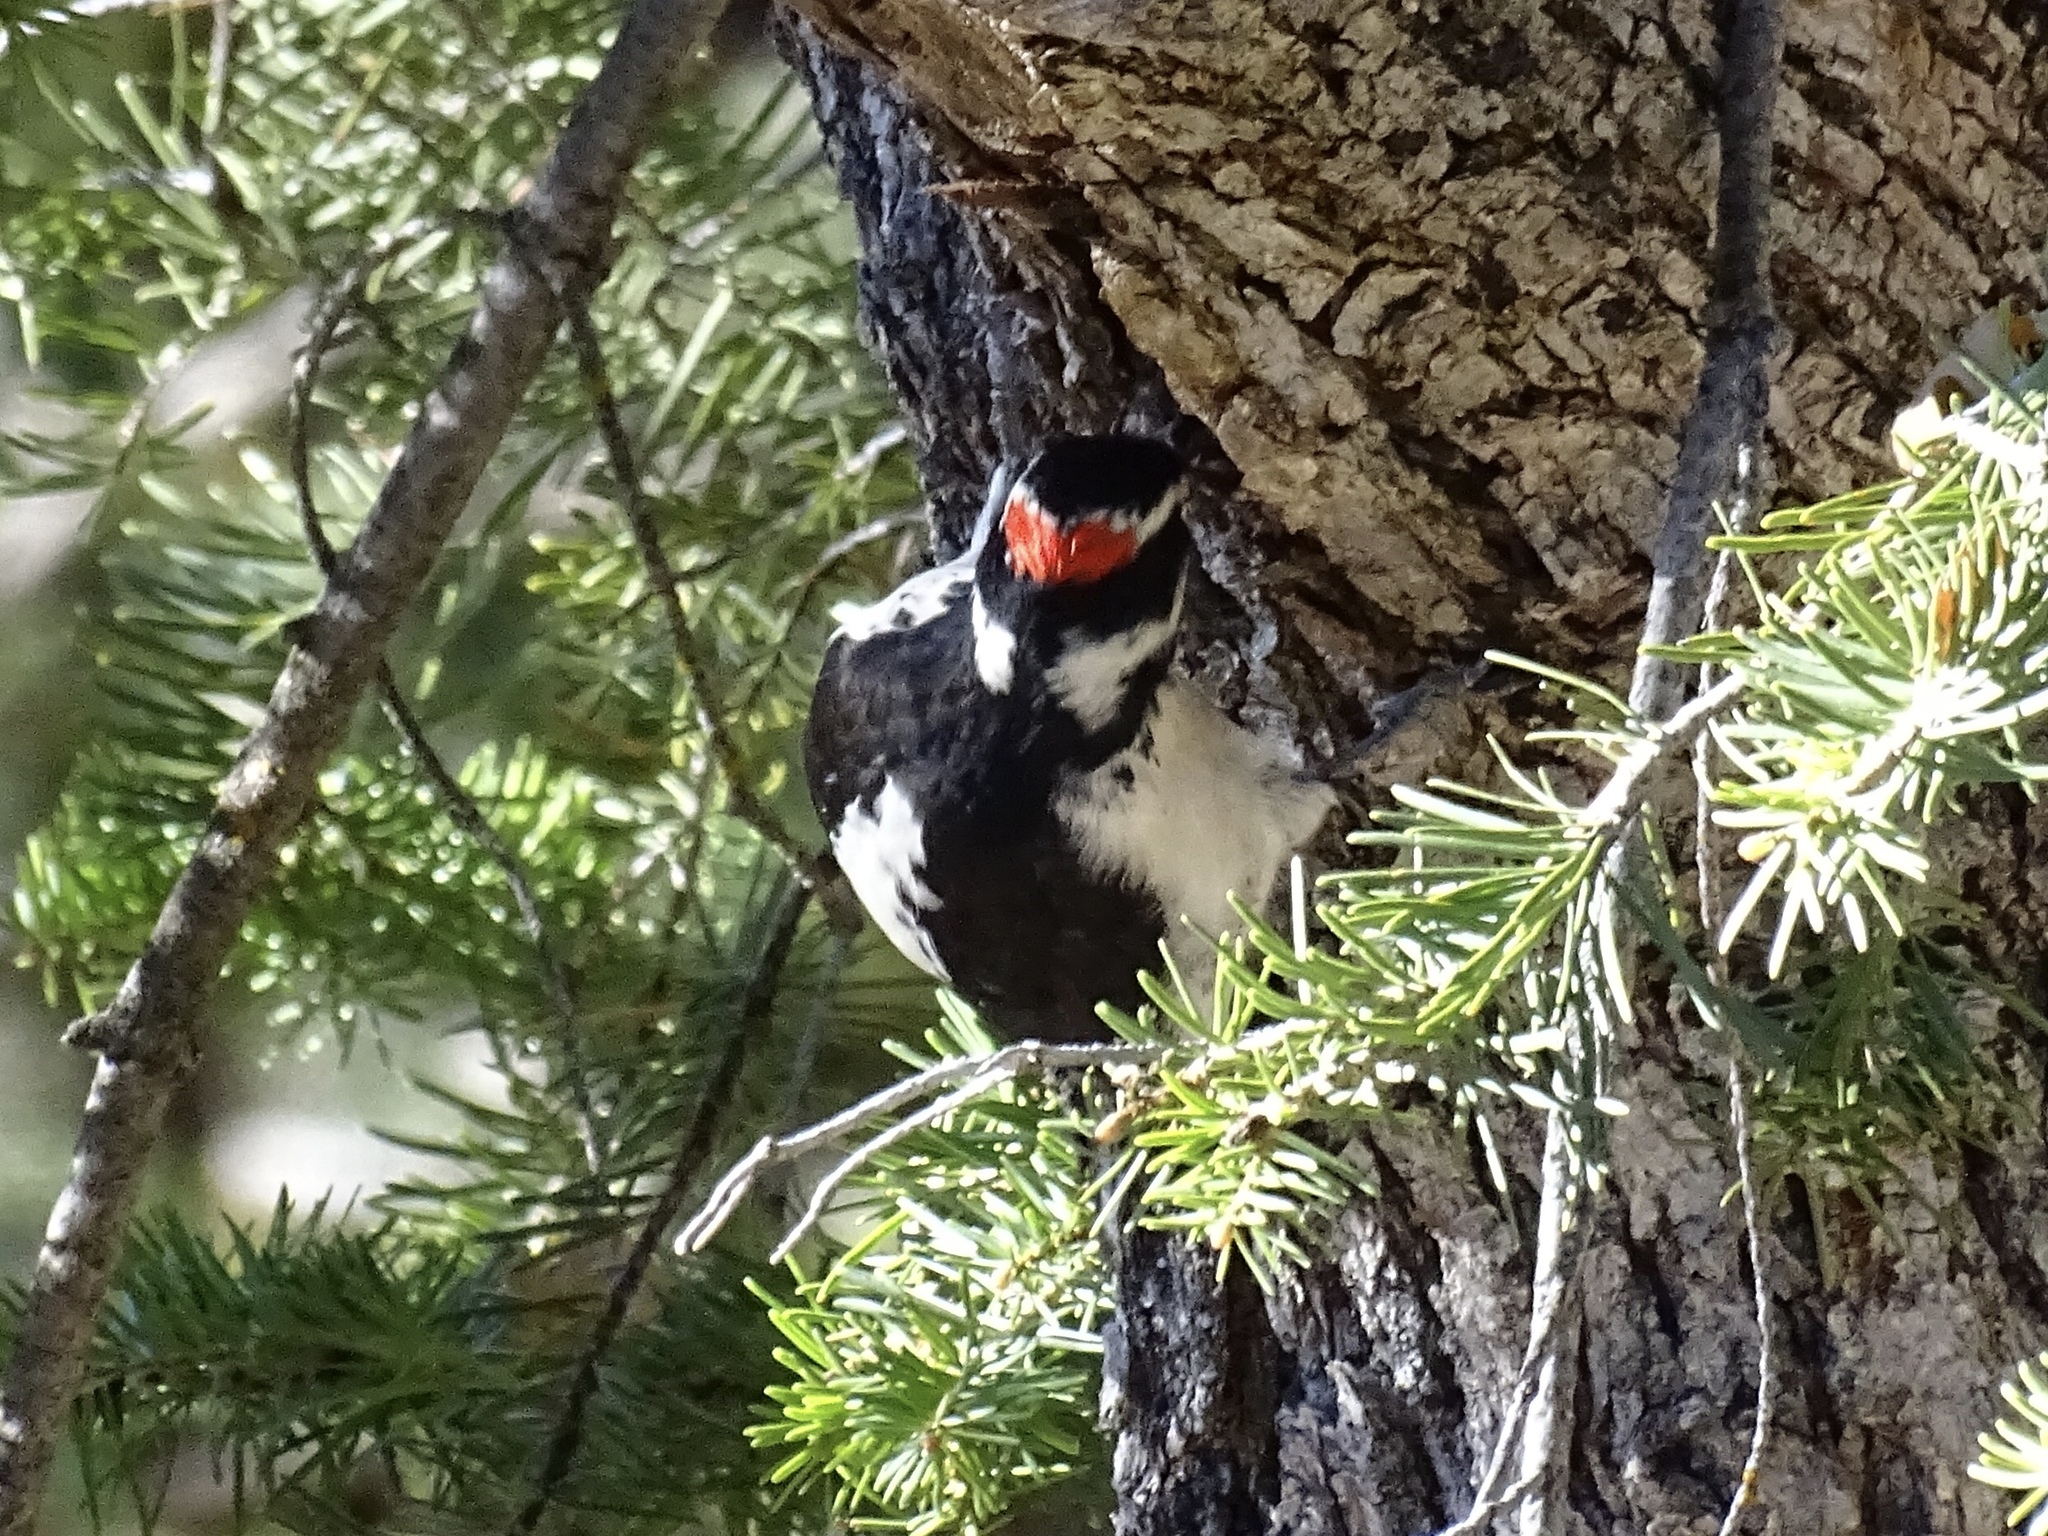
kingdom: Animalia
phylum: Chordata
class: Aves
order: Piciformes
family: Picidae
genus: Leuconotopicus
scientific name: Leuconotopicus villosus
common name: Hairy woodpecker
